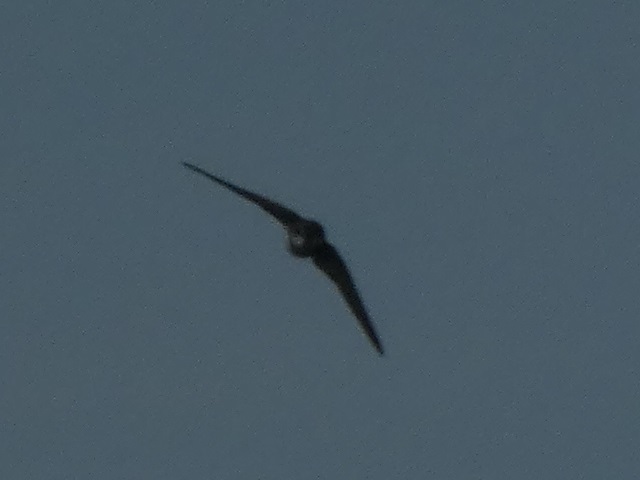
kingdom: Animalia
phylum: Chordata
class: Aves
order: Passeriformes
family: Hirundinidae
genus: Riparia
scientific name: Riparia riparia
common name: Sand martin
